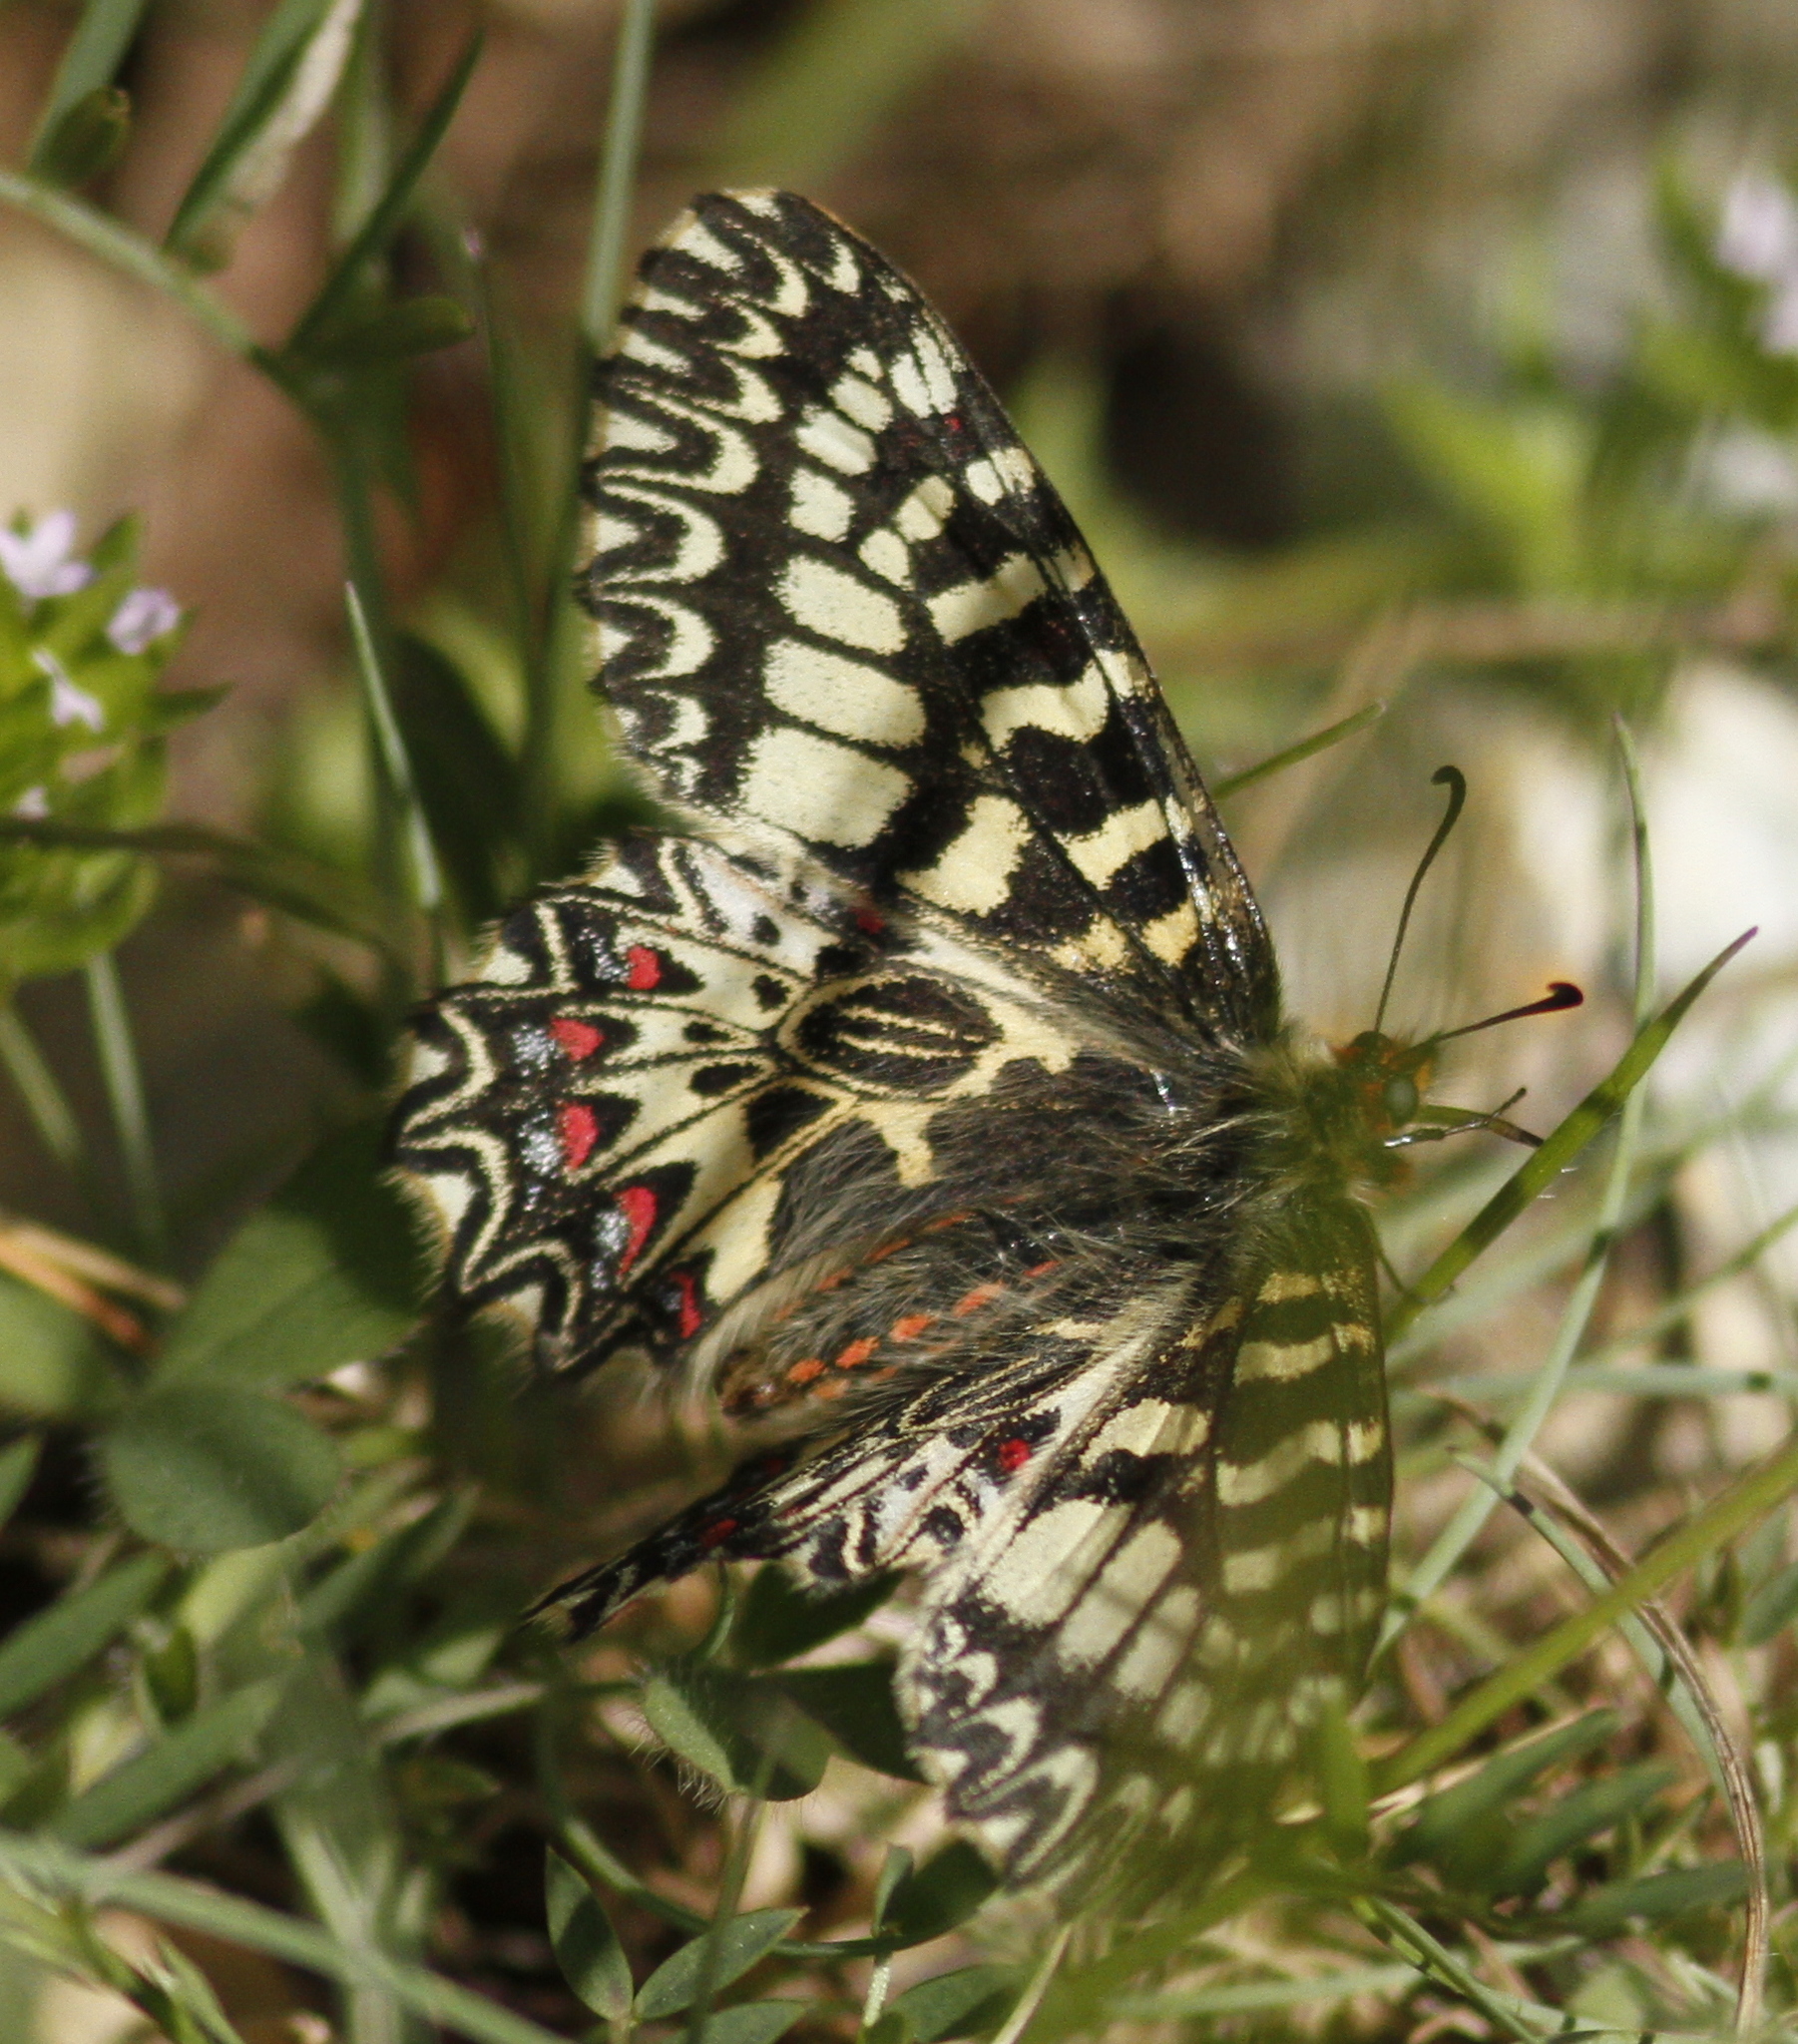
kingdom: Animalia
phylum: Arthropoda
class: Insecta
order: Lepidoptera
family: Papilionidae
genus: Zerynthia
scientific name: Zerynthia polyxena
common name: Southern festoon
